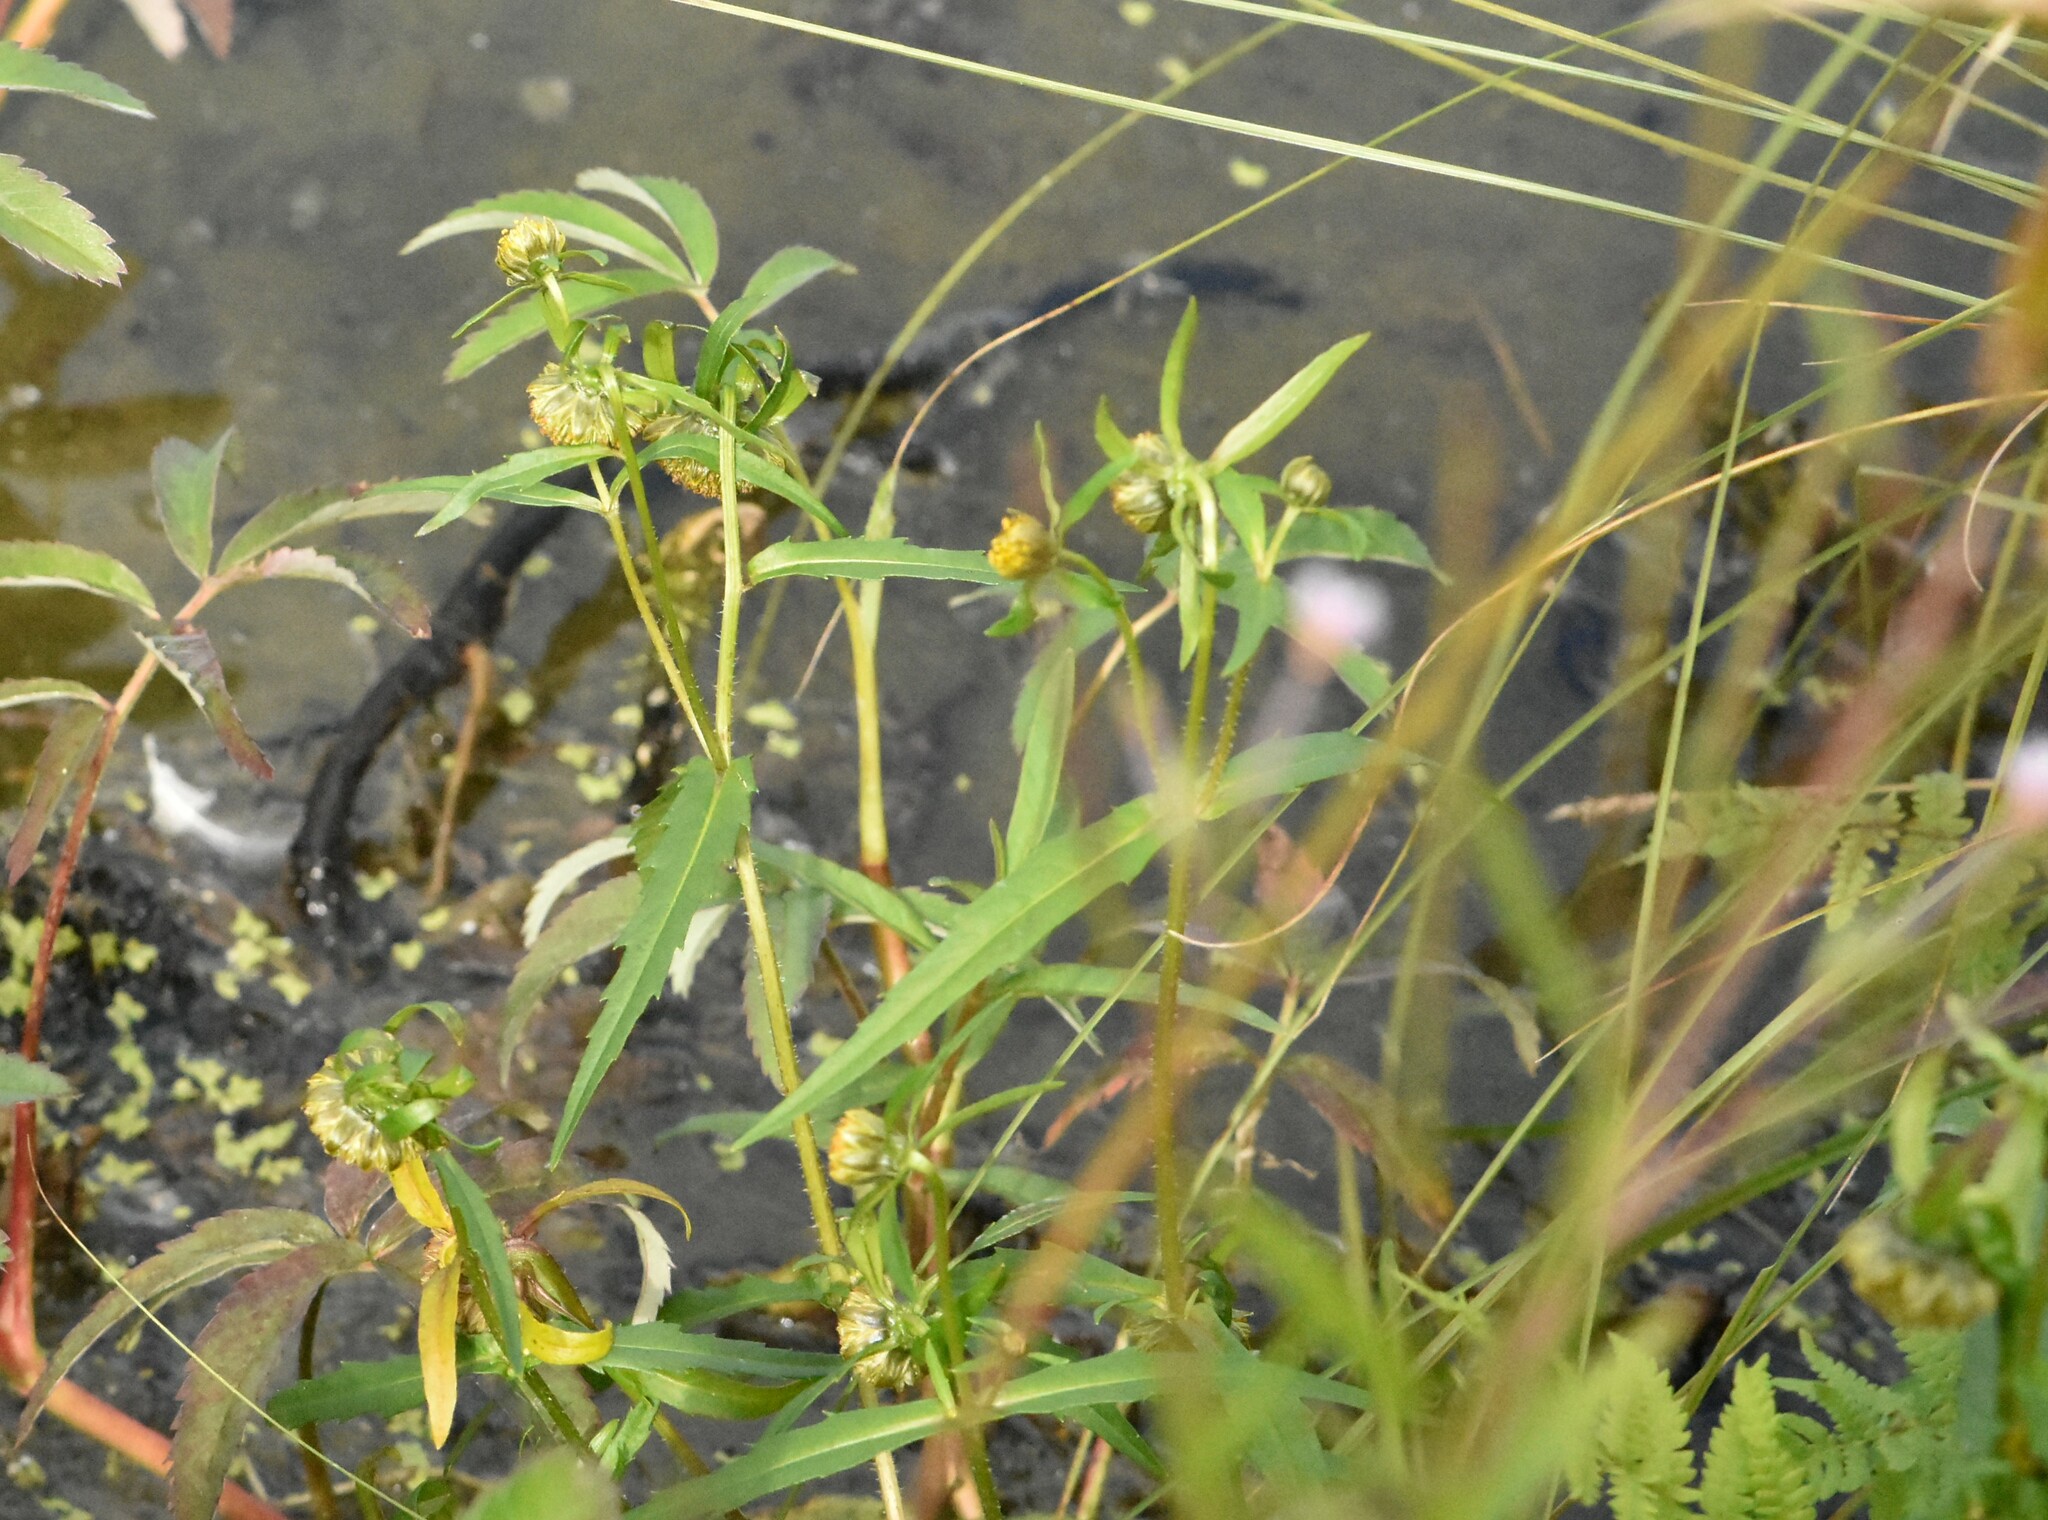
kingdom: Plantae
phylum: Tracheophyta
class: Magnoliopsida
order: Asterales
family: Asteraceae
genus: Bidens
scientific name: Bidens cernua
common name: Nodding bur-marigold
